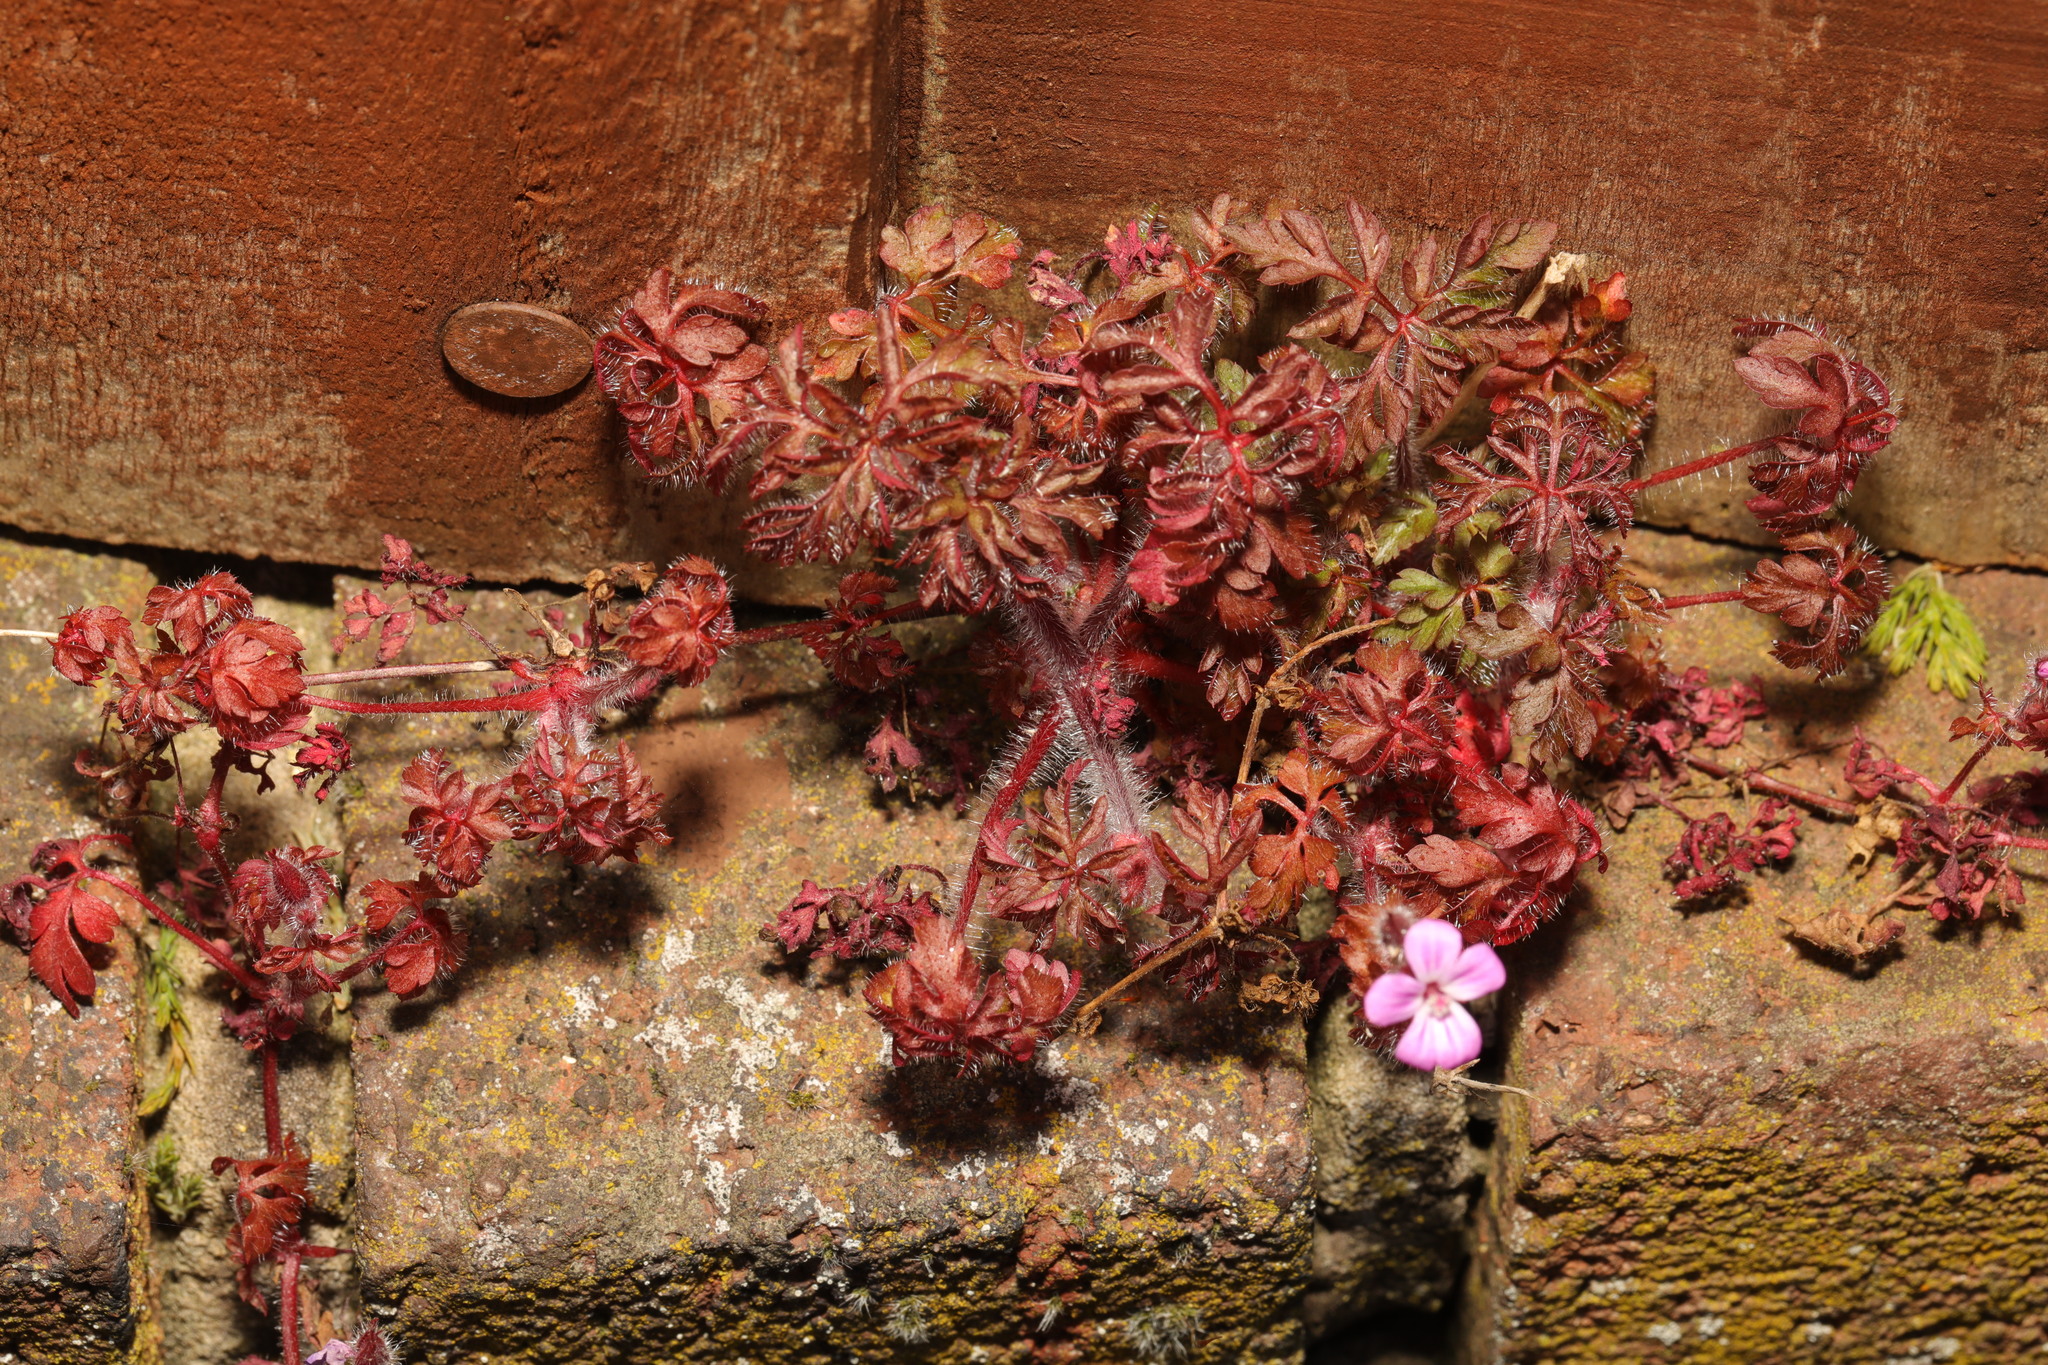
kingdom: Plantae
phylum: Tracheophyta
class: Magnoliopsida
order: Geraniales
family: Geraniaceae
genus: Geranium
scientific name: Geranium robertianum
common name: Herb-robert
